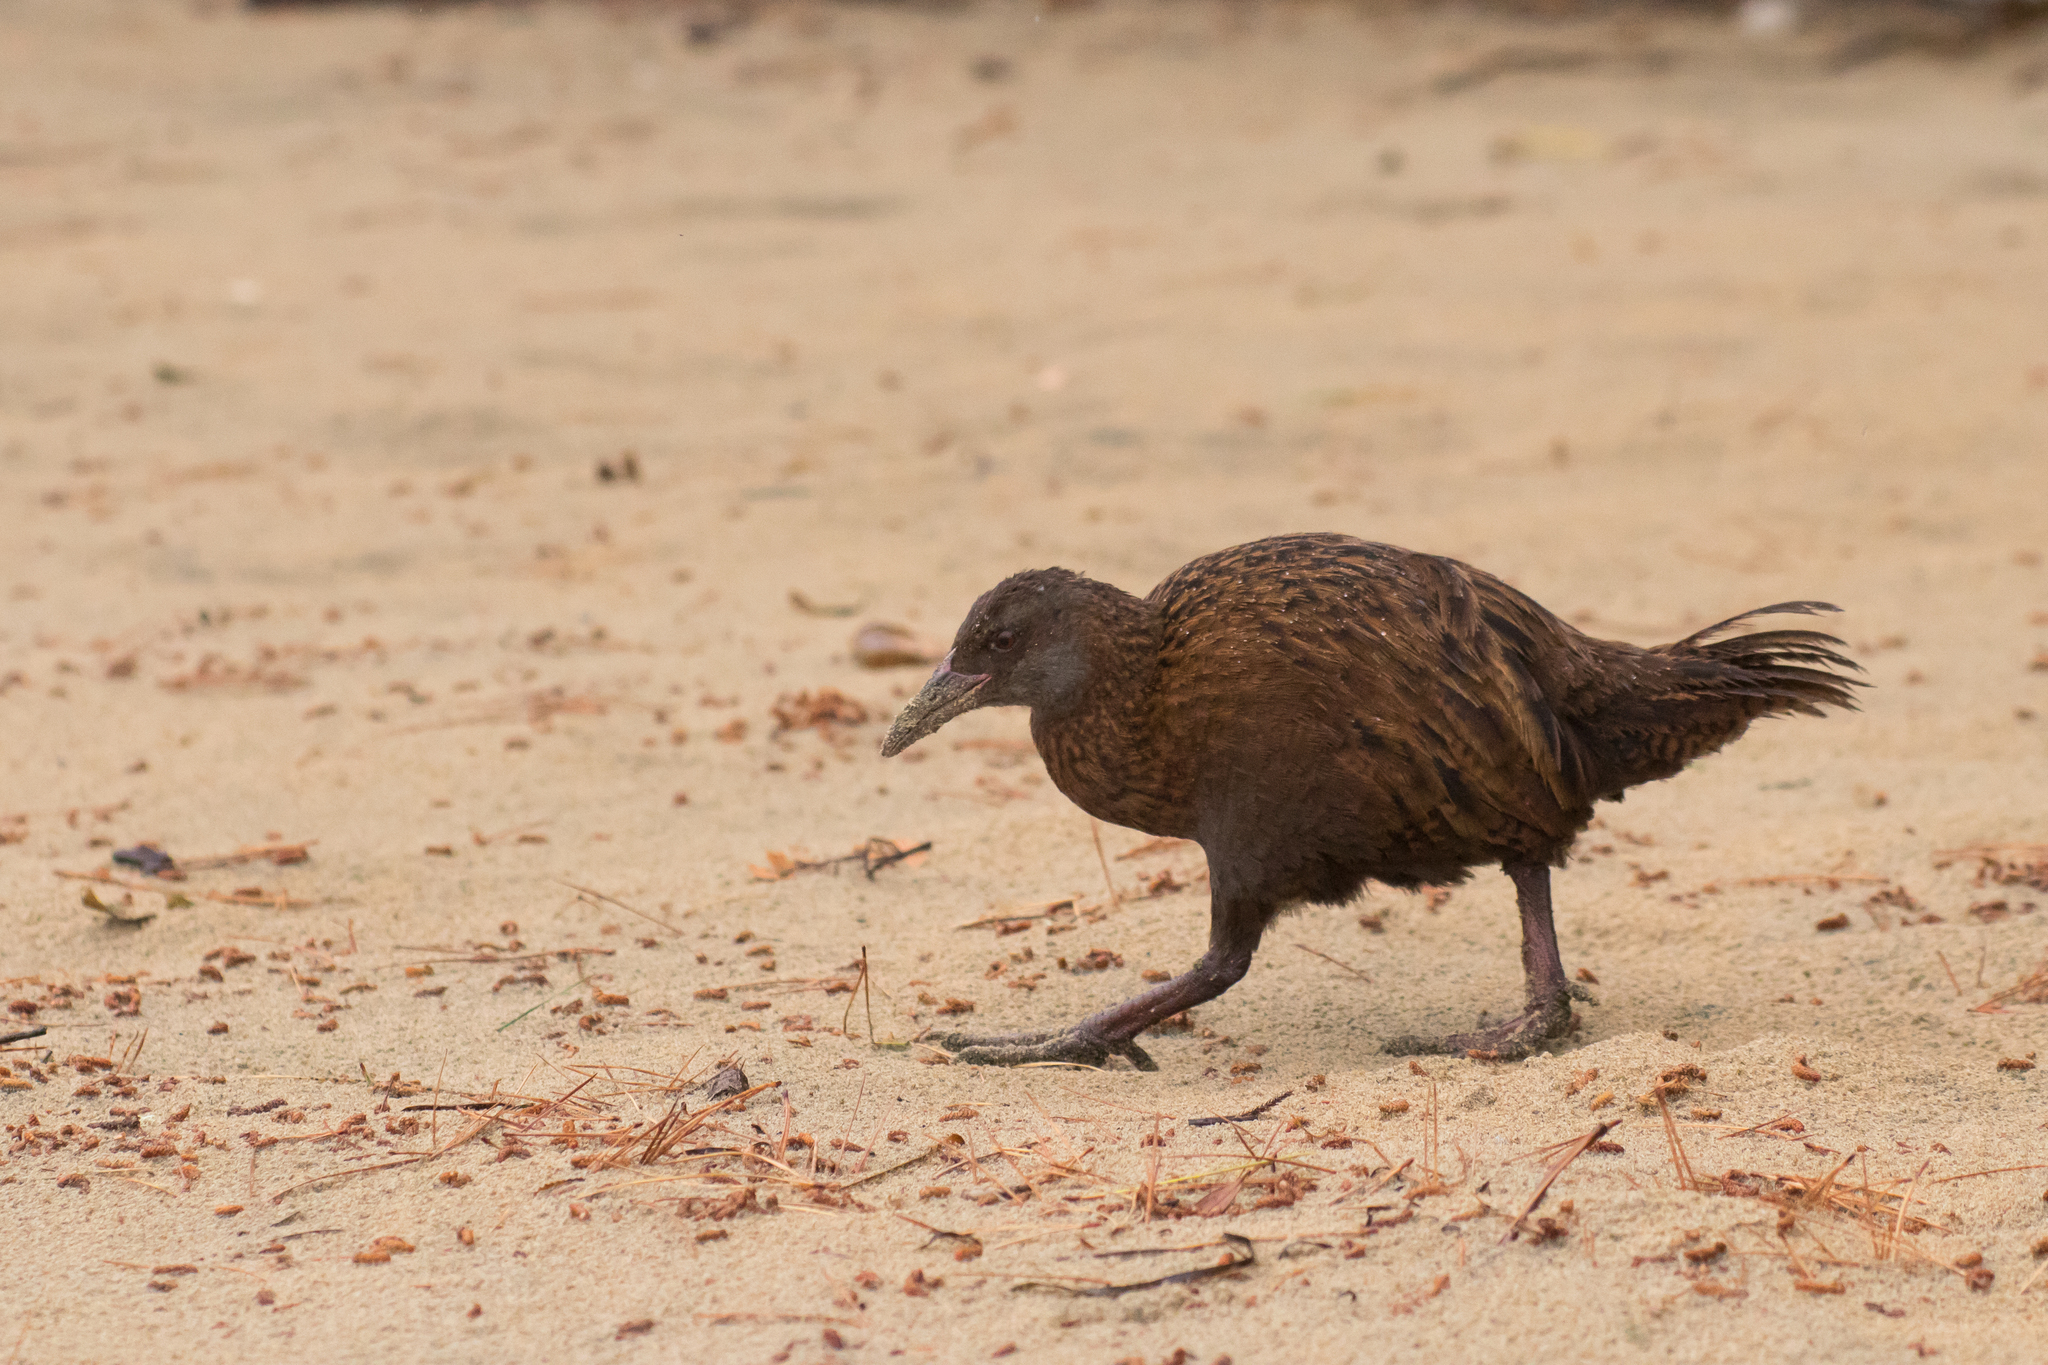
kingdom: Animalia
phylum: Chordata
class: Aves
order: Gruiformes
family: Rallidae
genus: Gallirallus
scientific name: Gallirallus australis
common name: Weka
